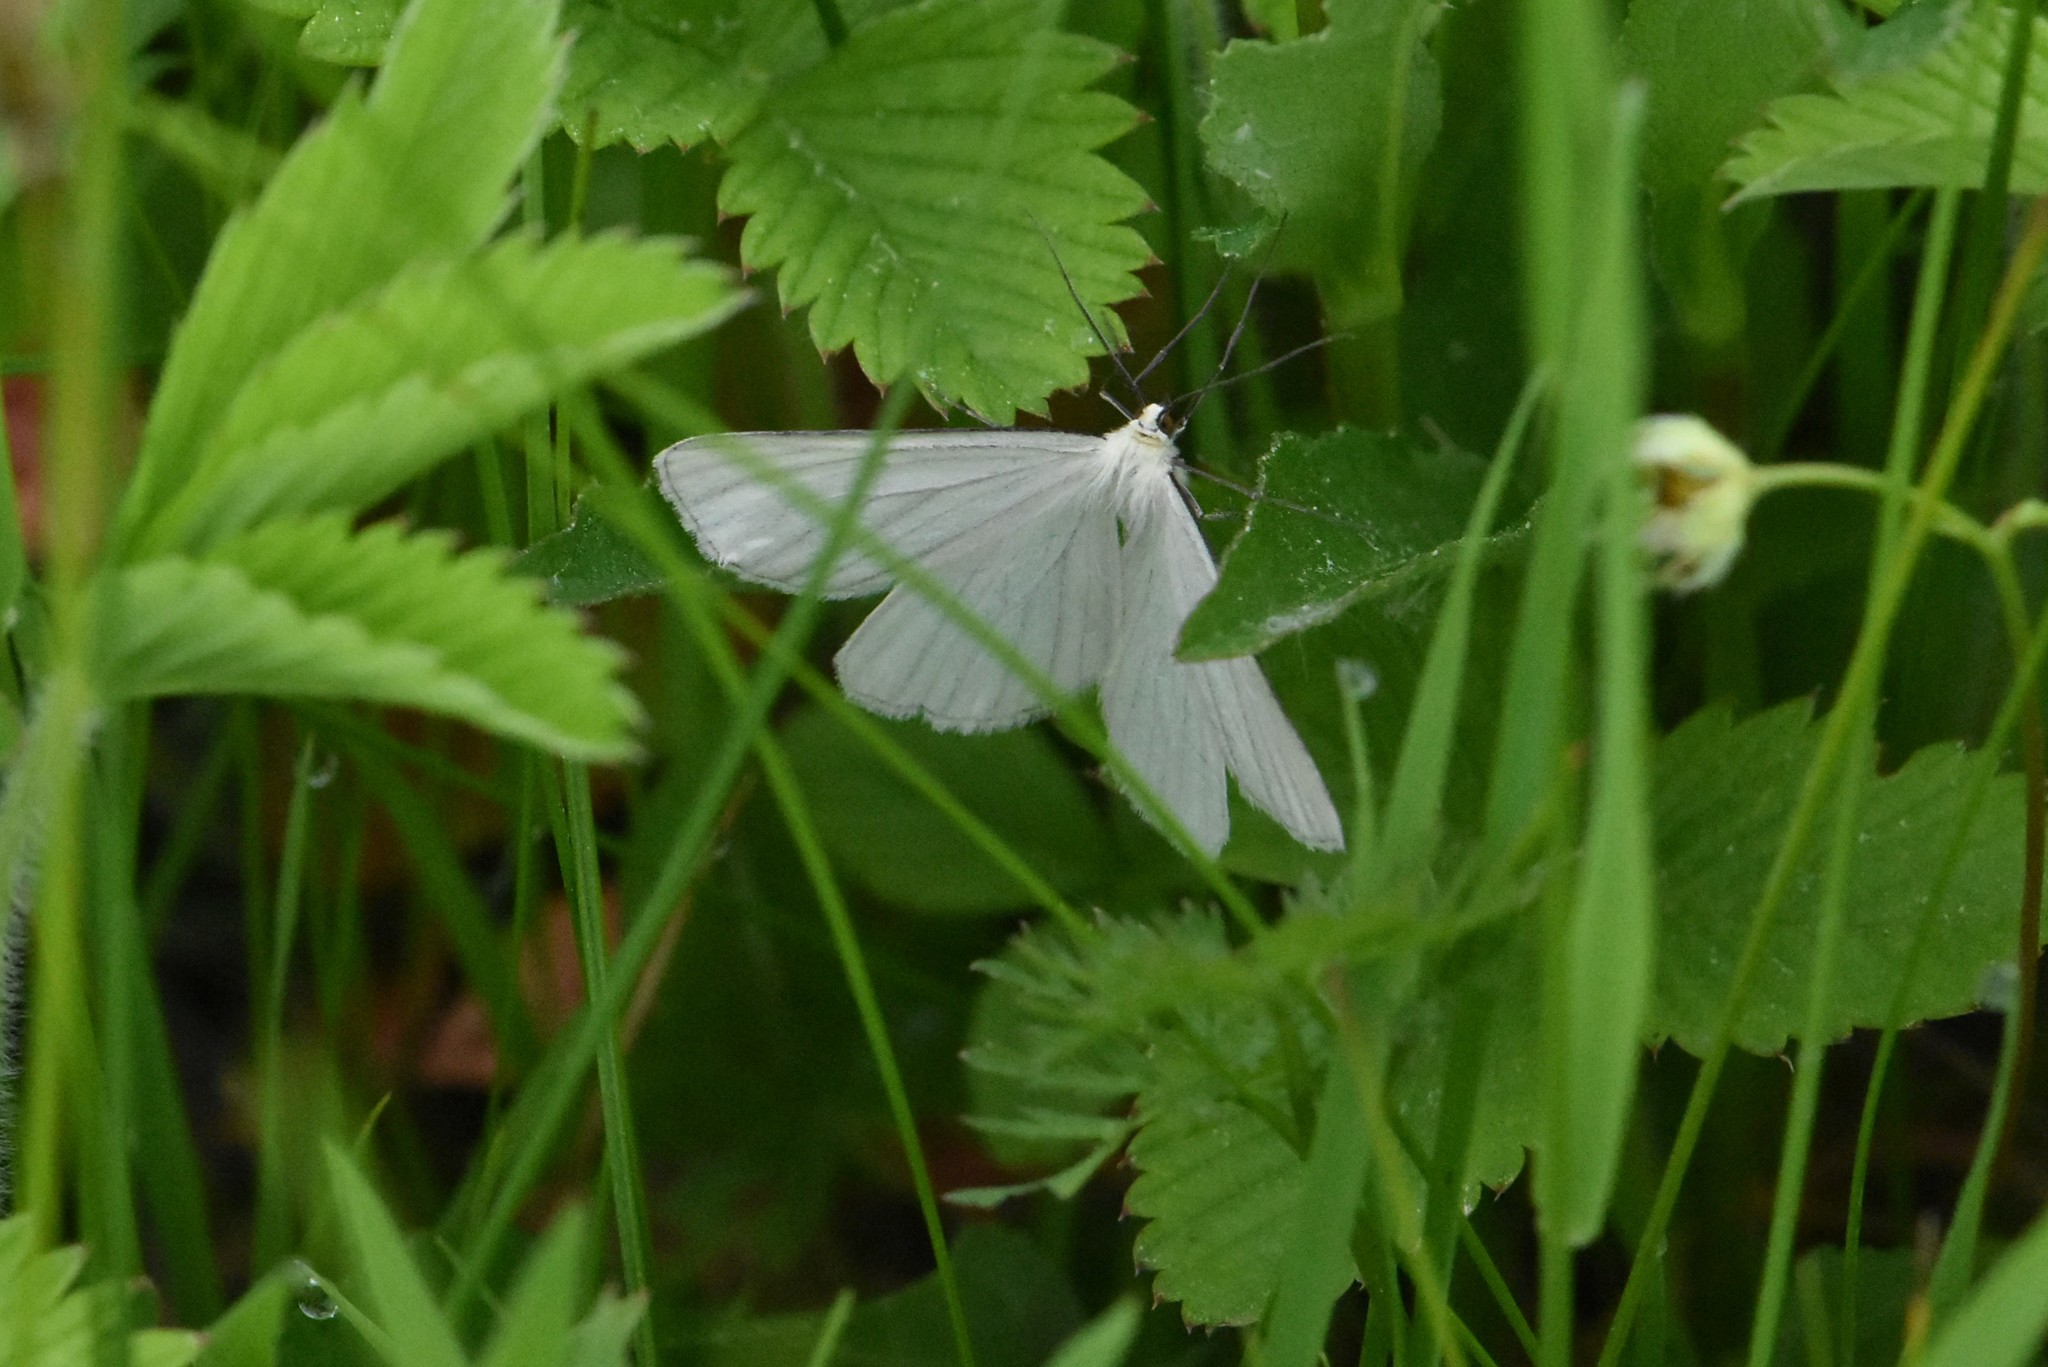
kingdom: Animalia
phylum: Arthropoda
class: Insecta
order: Lepidoptera
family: Geometridae
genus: Siona
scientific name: Siona lineata
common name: Black-veined moth
